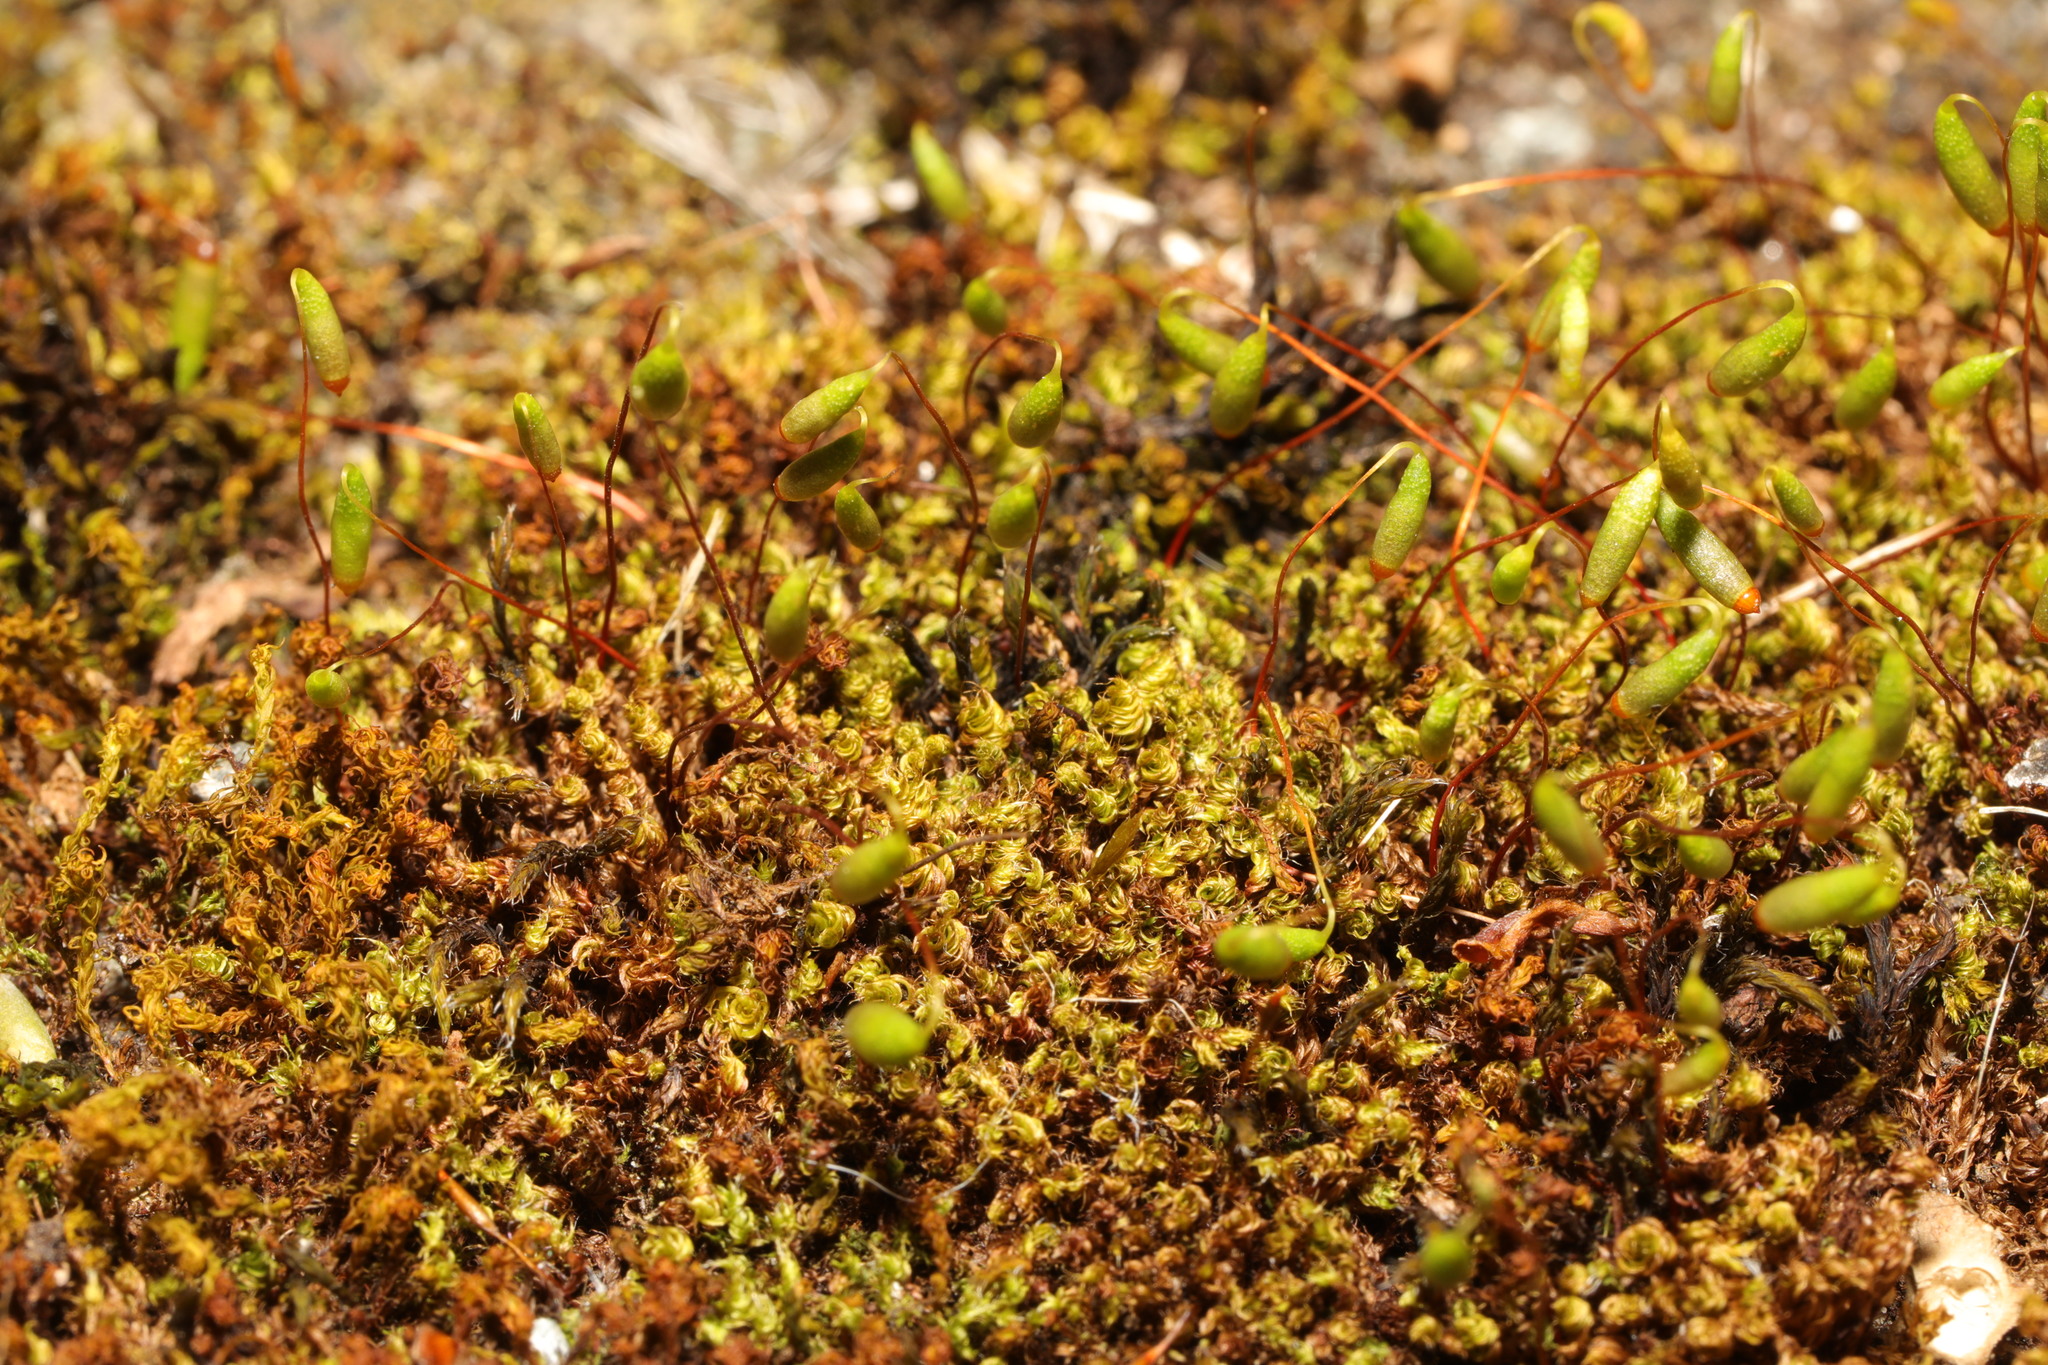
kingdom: Plantae
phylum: Bryophyta
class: Bryopsida
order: Bryales
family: Bryaceae
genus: Rosulabryum
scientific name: Rosulabryum capillare
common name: Capillary thread-moss
